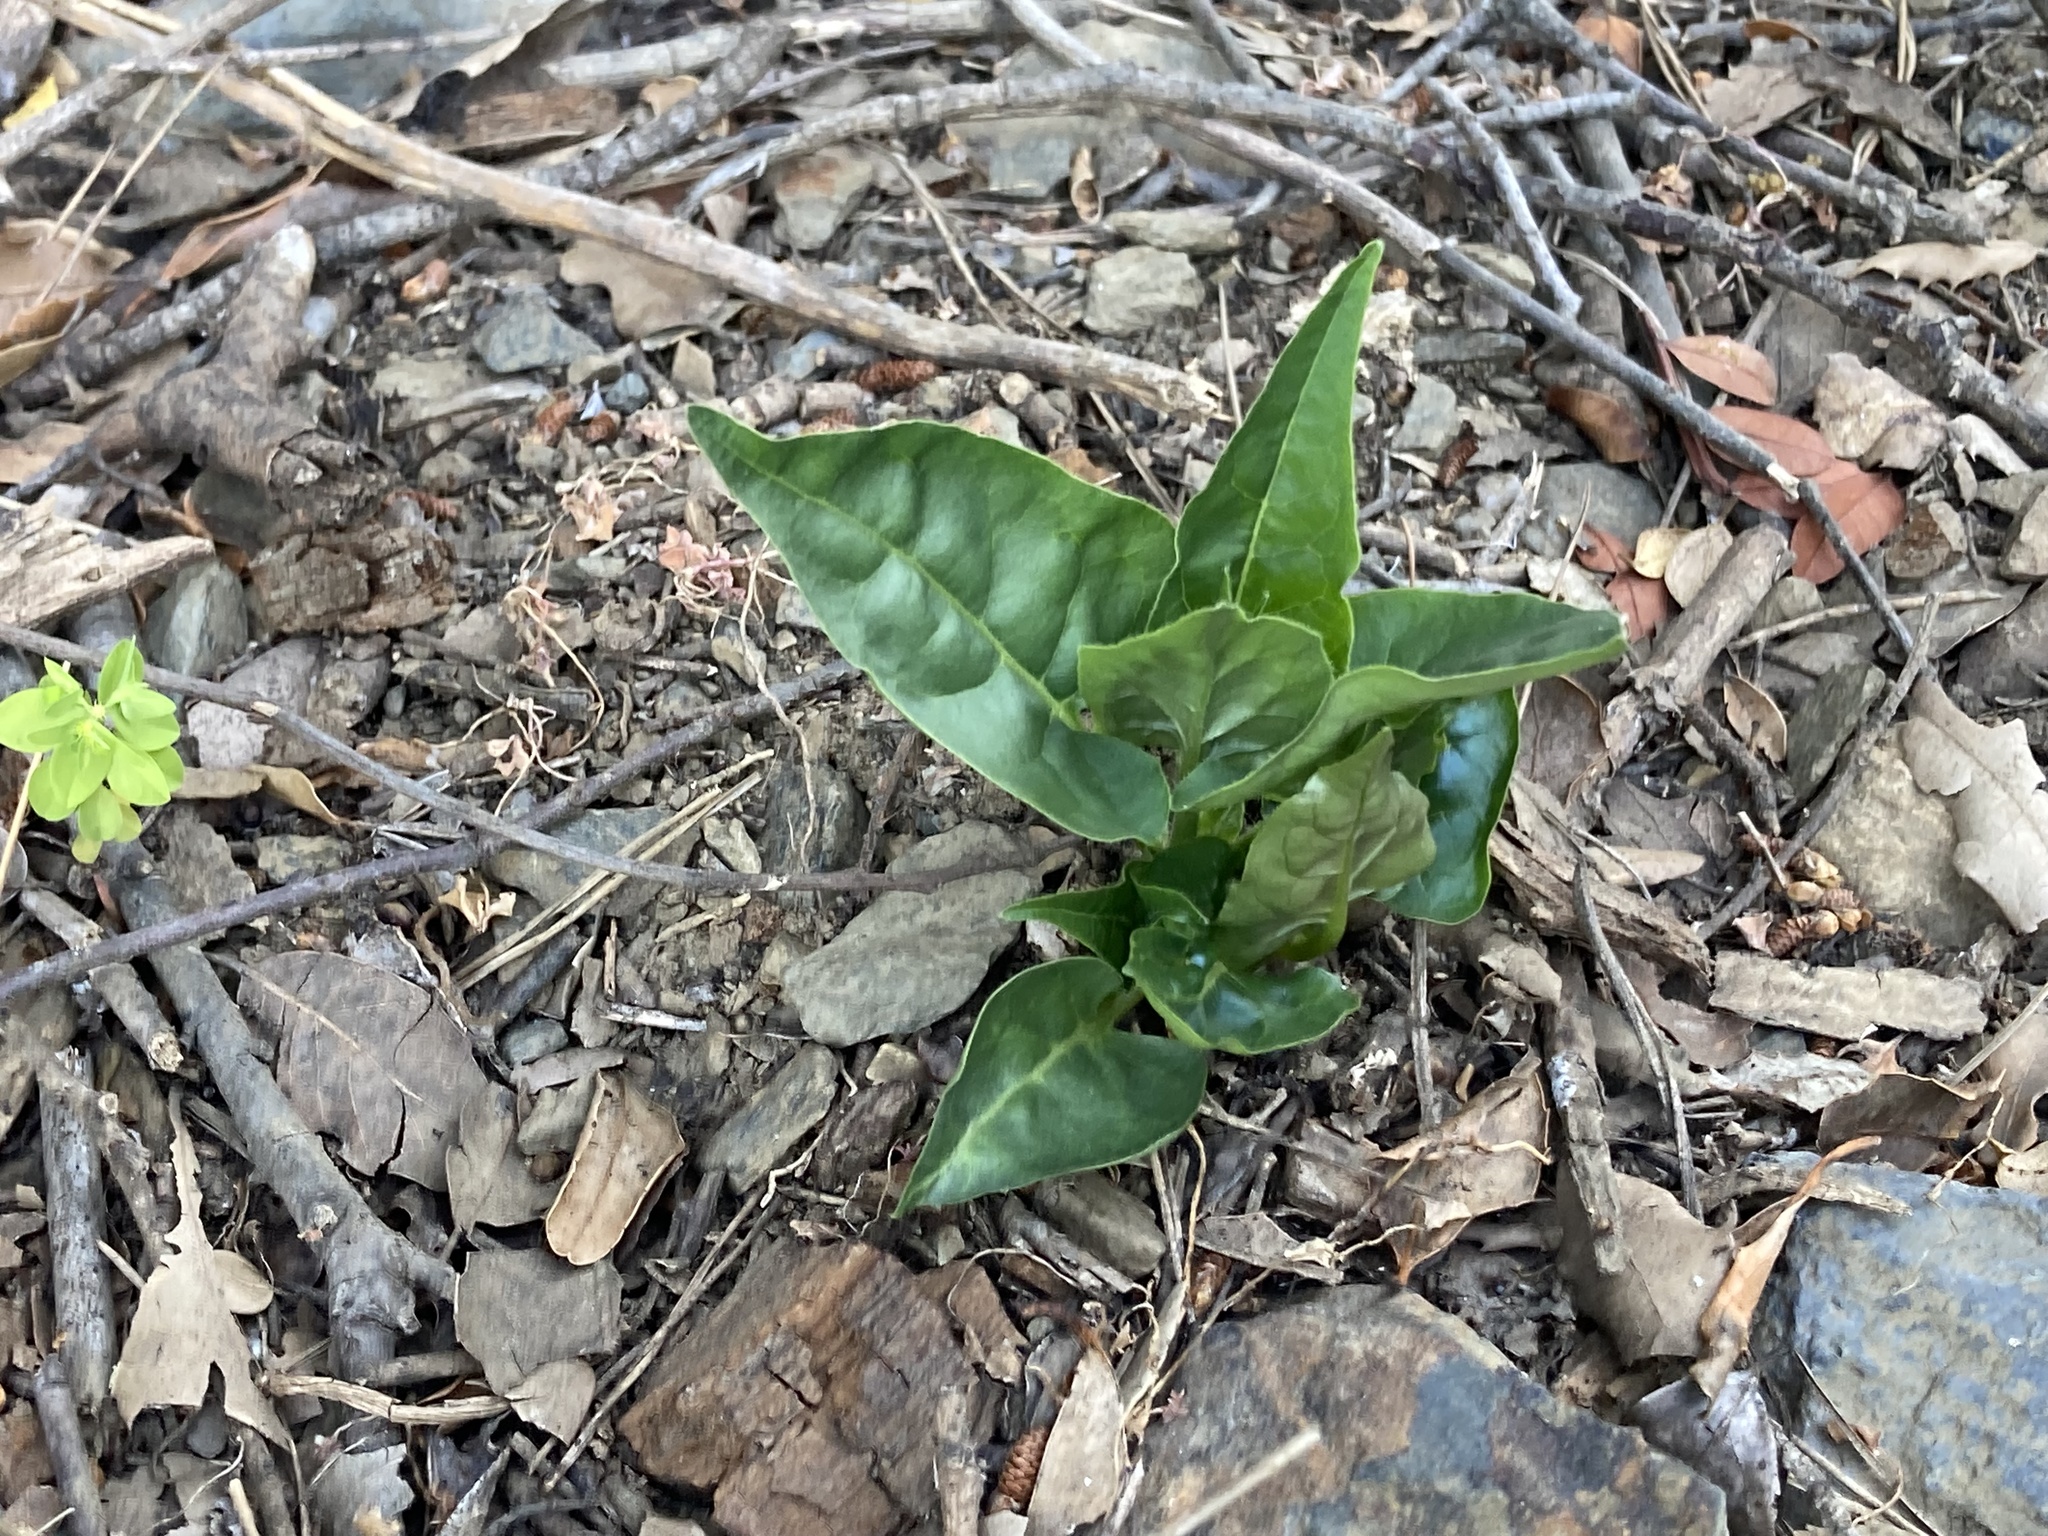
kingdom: Plantae
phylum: Tracheophyta
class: Magnoliopsida
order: Caryophyllales
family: Nyctaginaceae
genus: Mirabilis
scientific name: Mirabilis jalapa
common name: Marvel-of-peru
